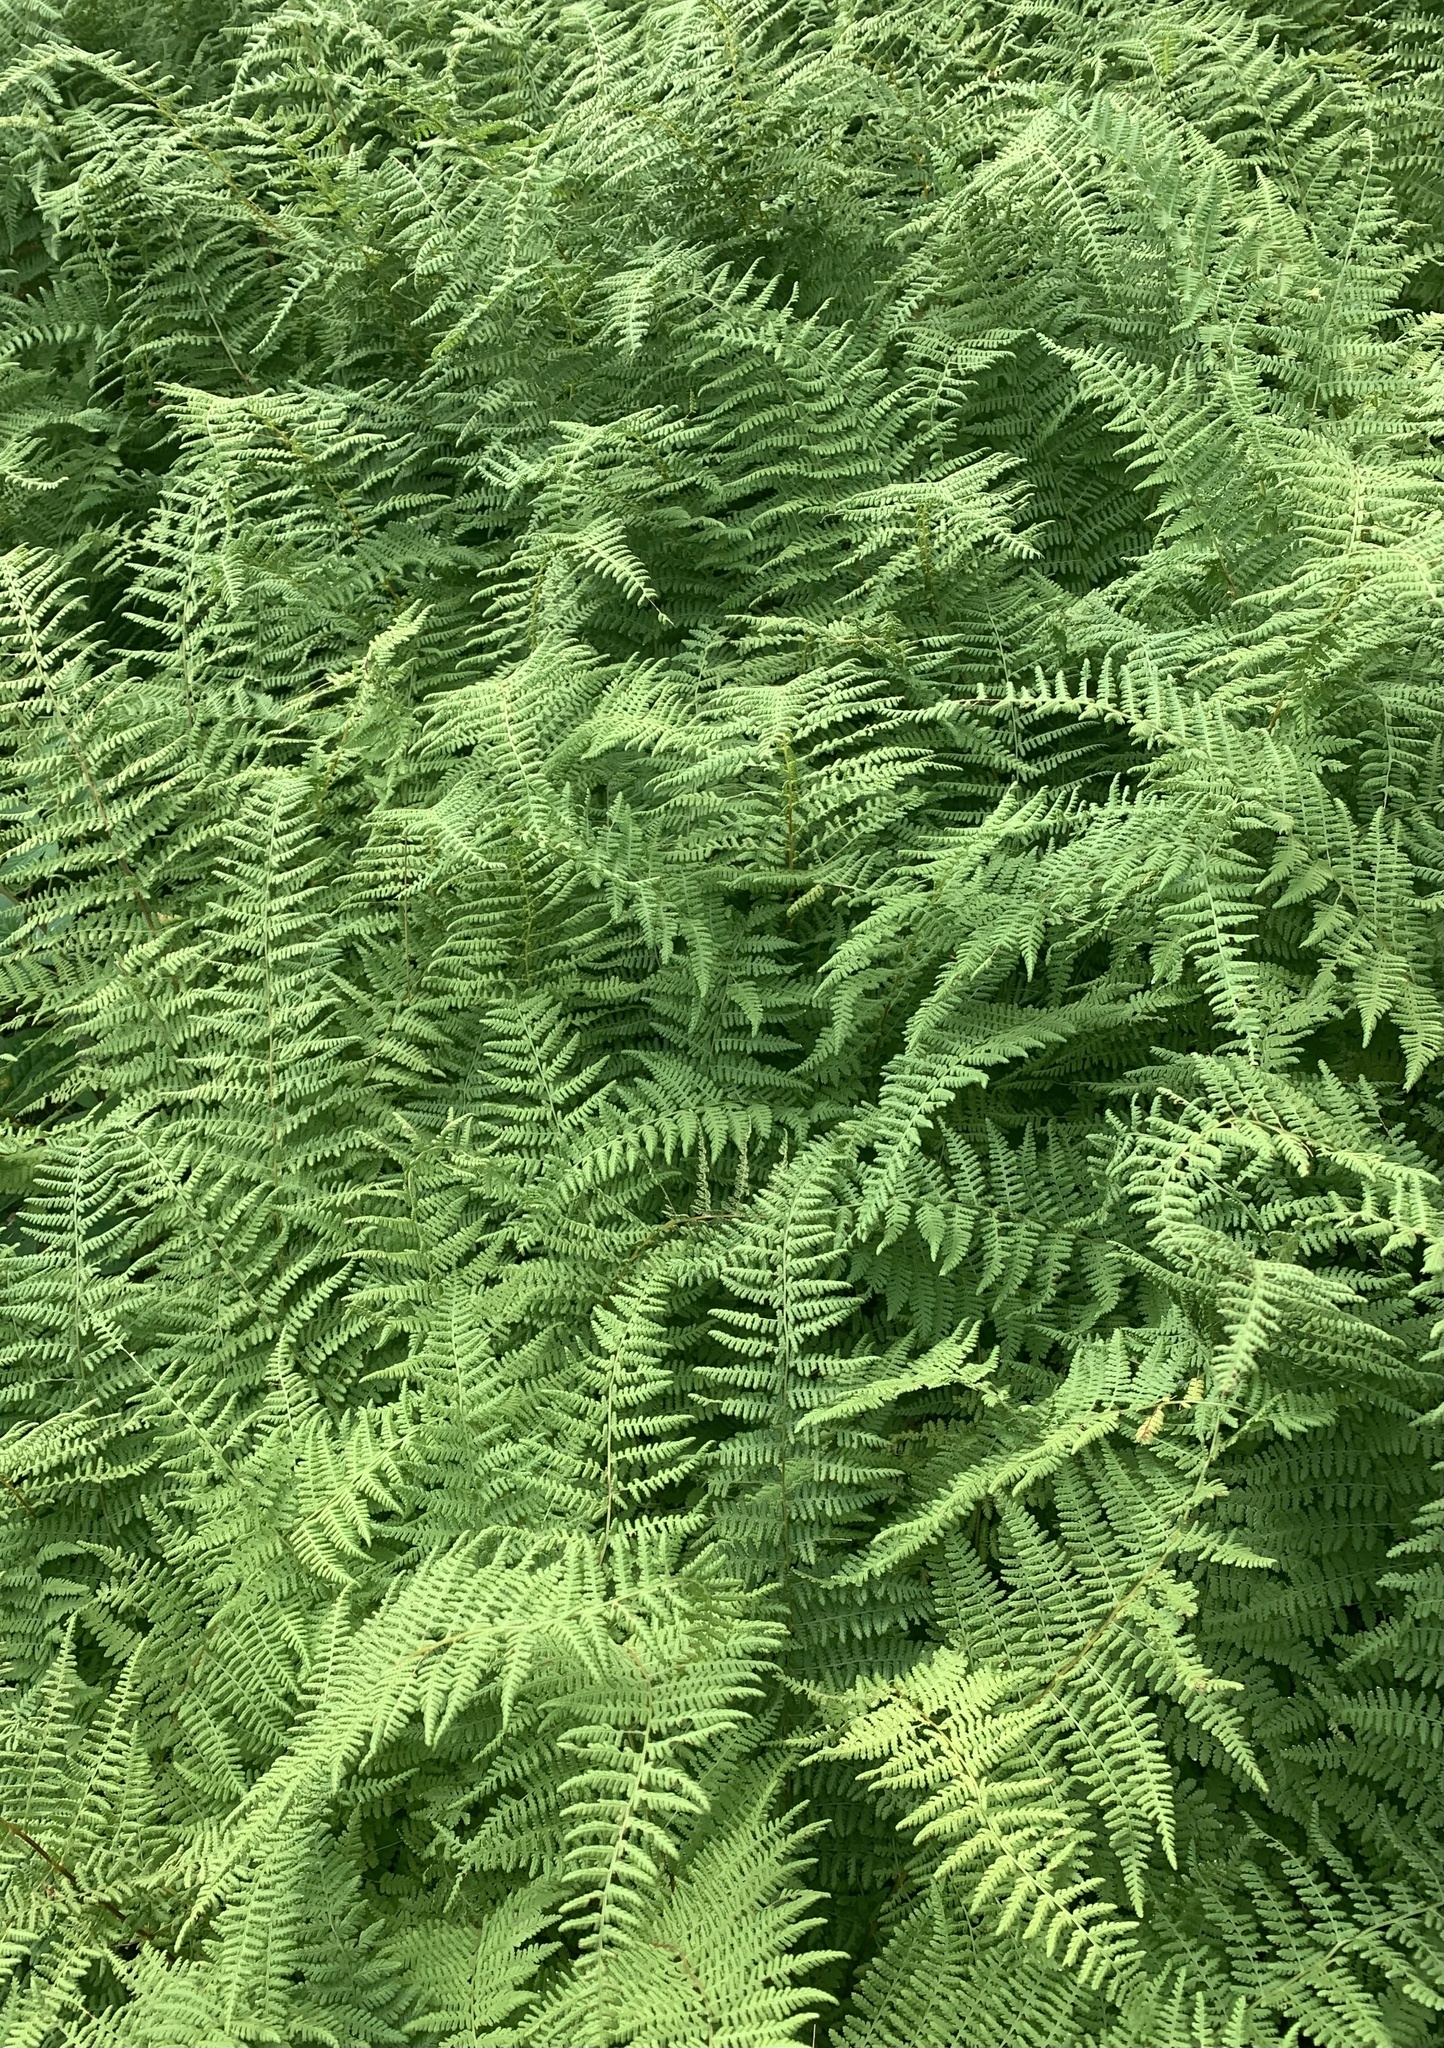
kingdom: Plantae
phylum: Tracheophyta
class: Polypodiopsida
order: Polypodiales
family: Dennstaedtiaceae
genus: Sitobolium
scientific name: Sitobolium punctilobum
